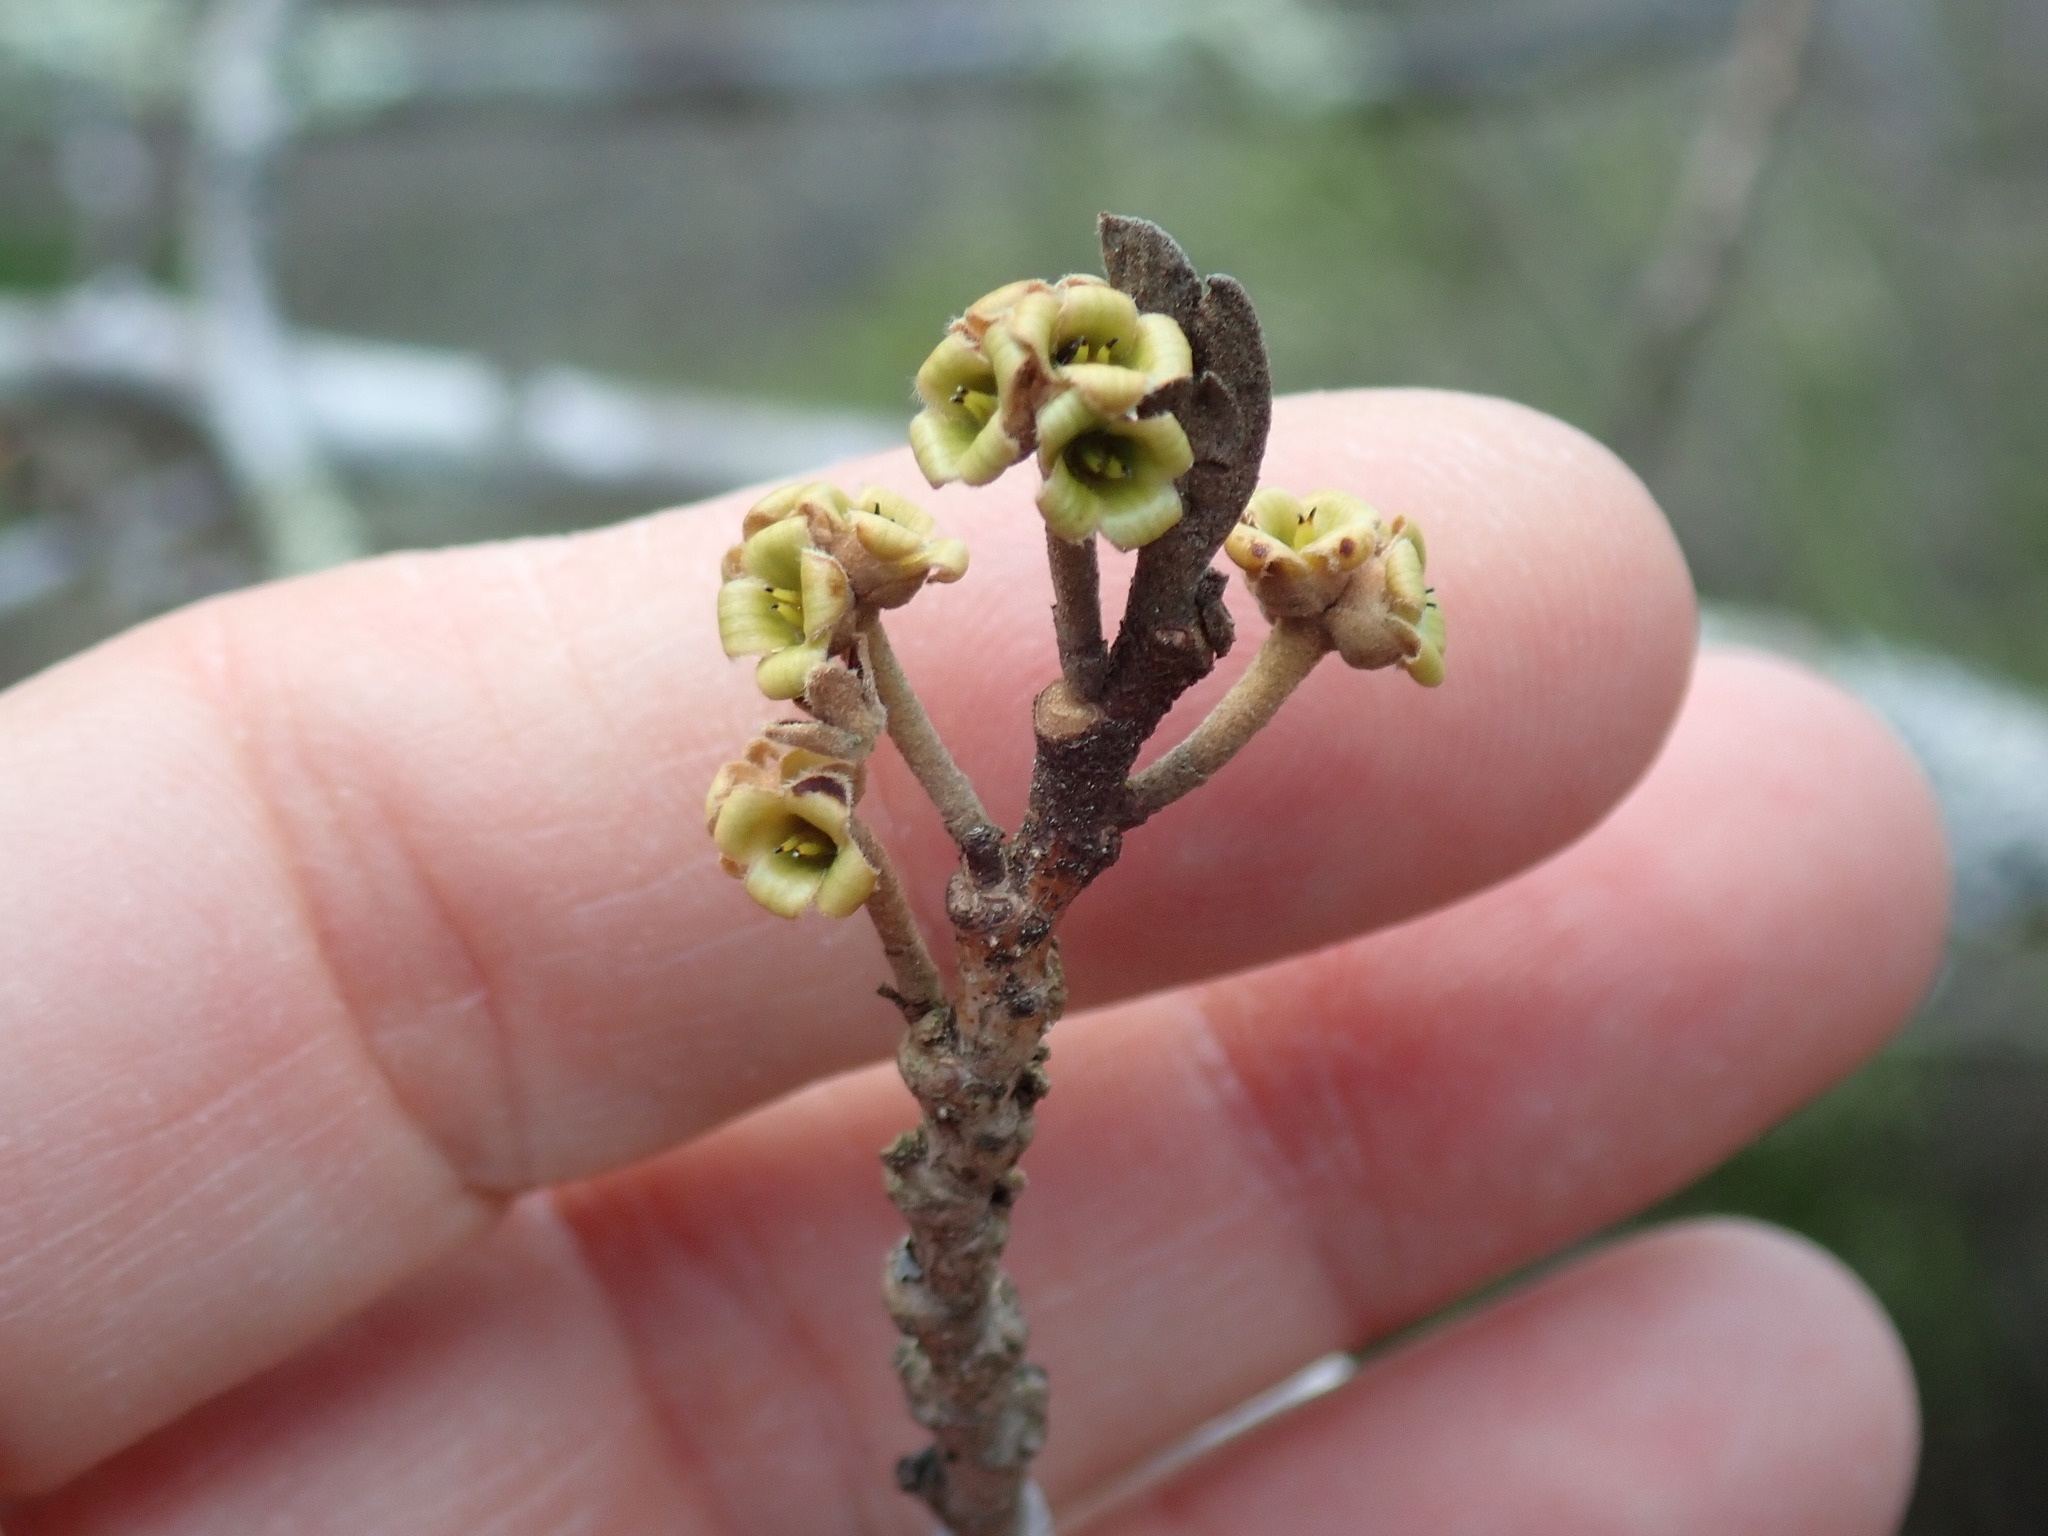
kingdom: Plantae
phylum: Tracheophyta
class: Magnoliopsida
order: Saxifragales
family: Hamamelidaceae
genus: Hamamelis
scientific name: Hamamelis virginiana
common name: Witch-hazel
